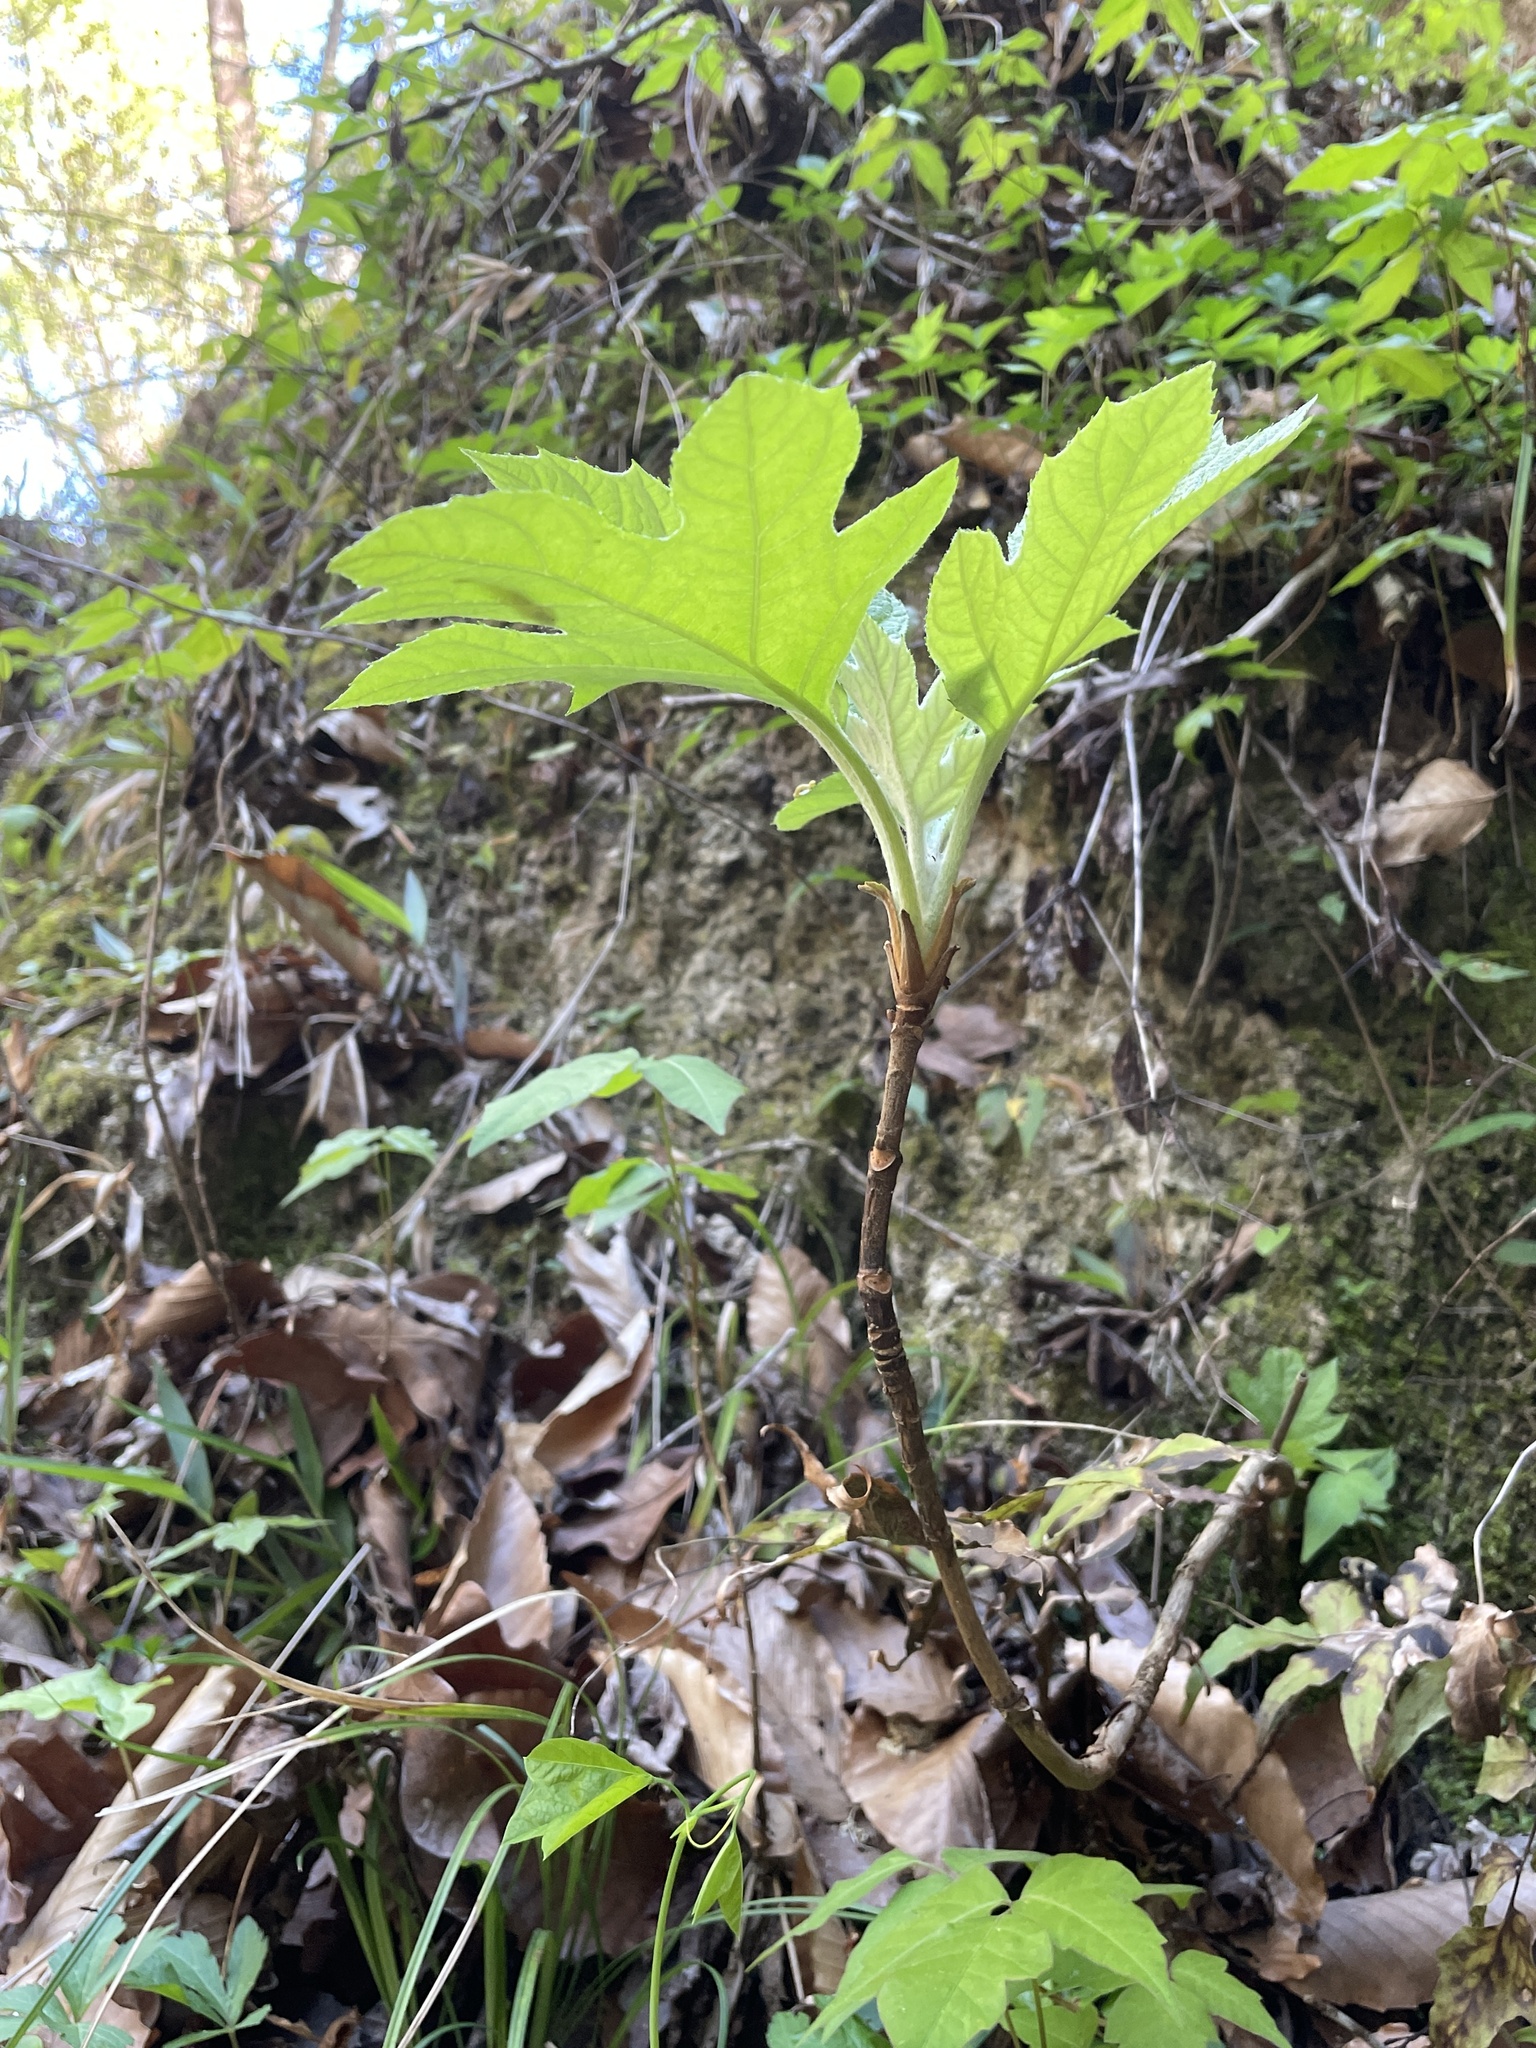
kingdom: Plantae
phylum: Tracheophyta
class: Magnoliopsida
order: Cornales
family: Hydrangeaceae
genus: Hydrangea
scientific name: Hydrangea quercifolia
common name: Oak-leaf hydrangea
